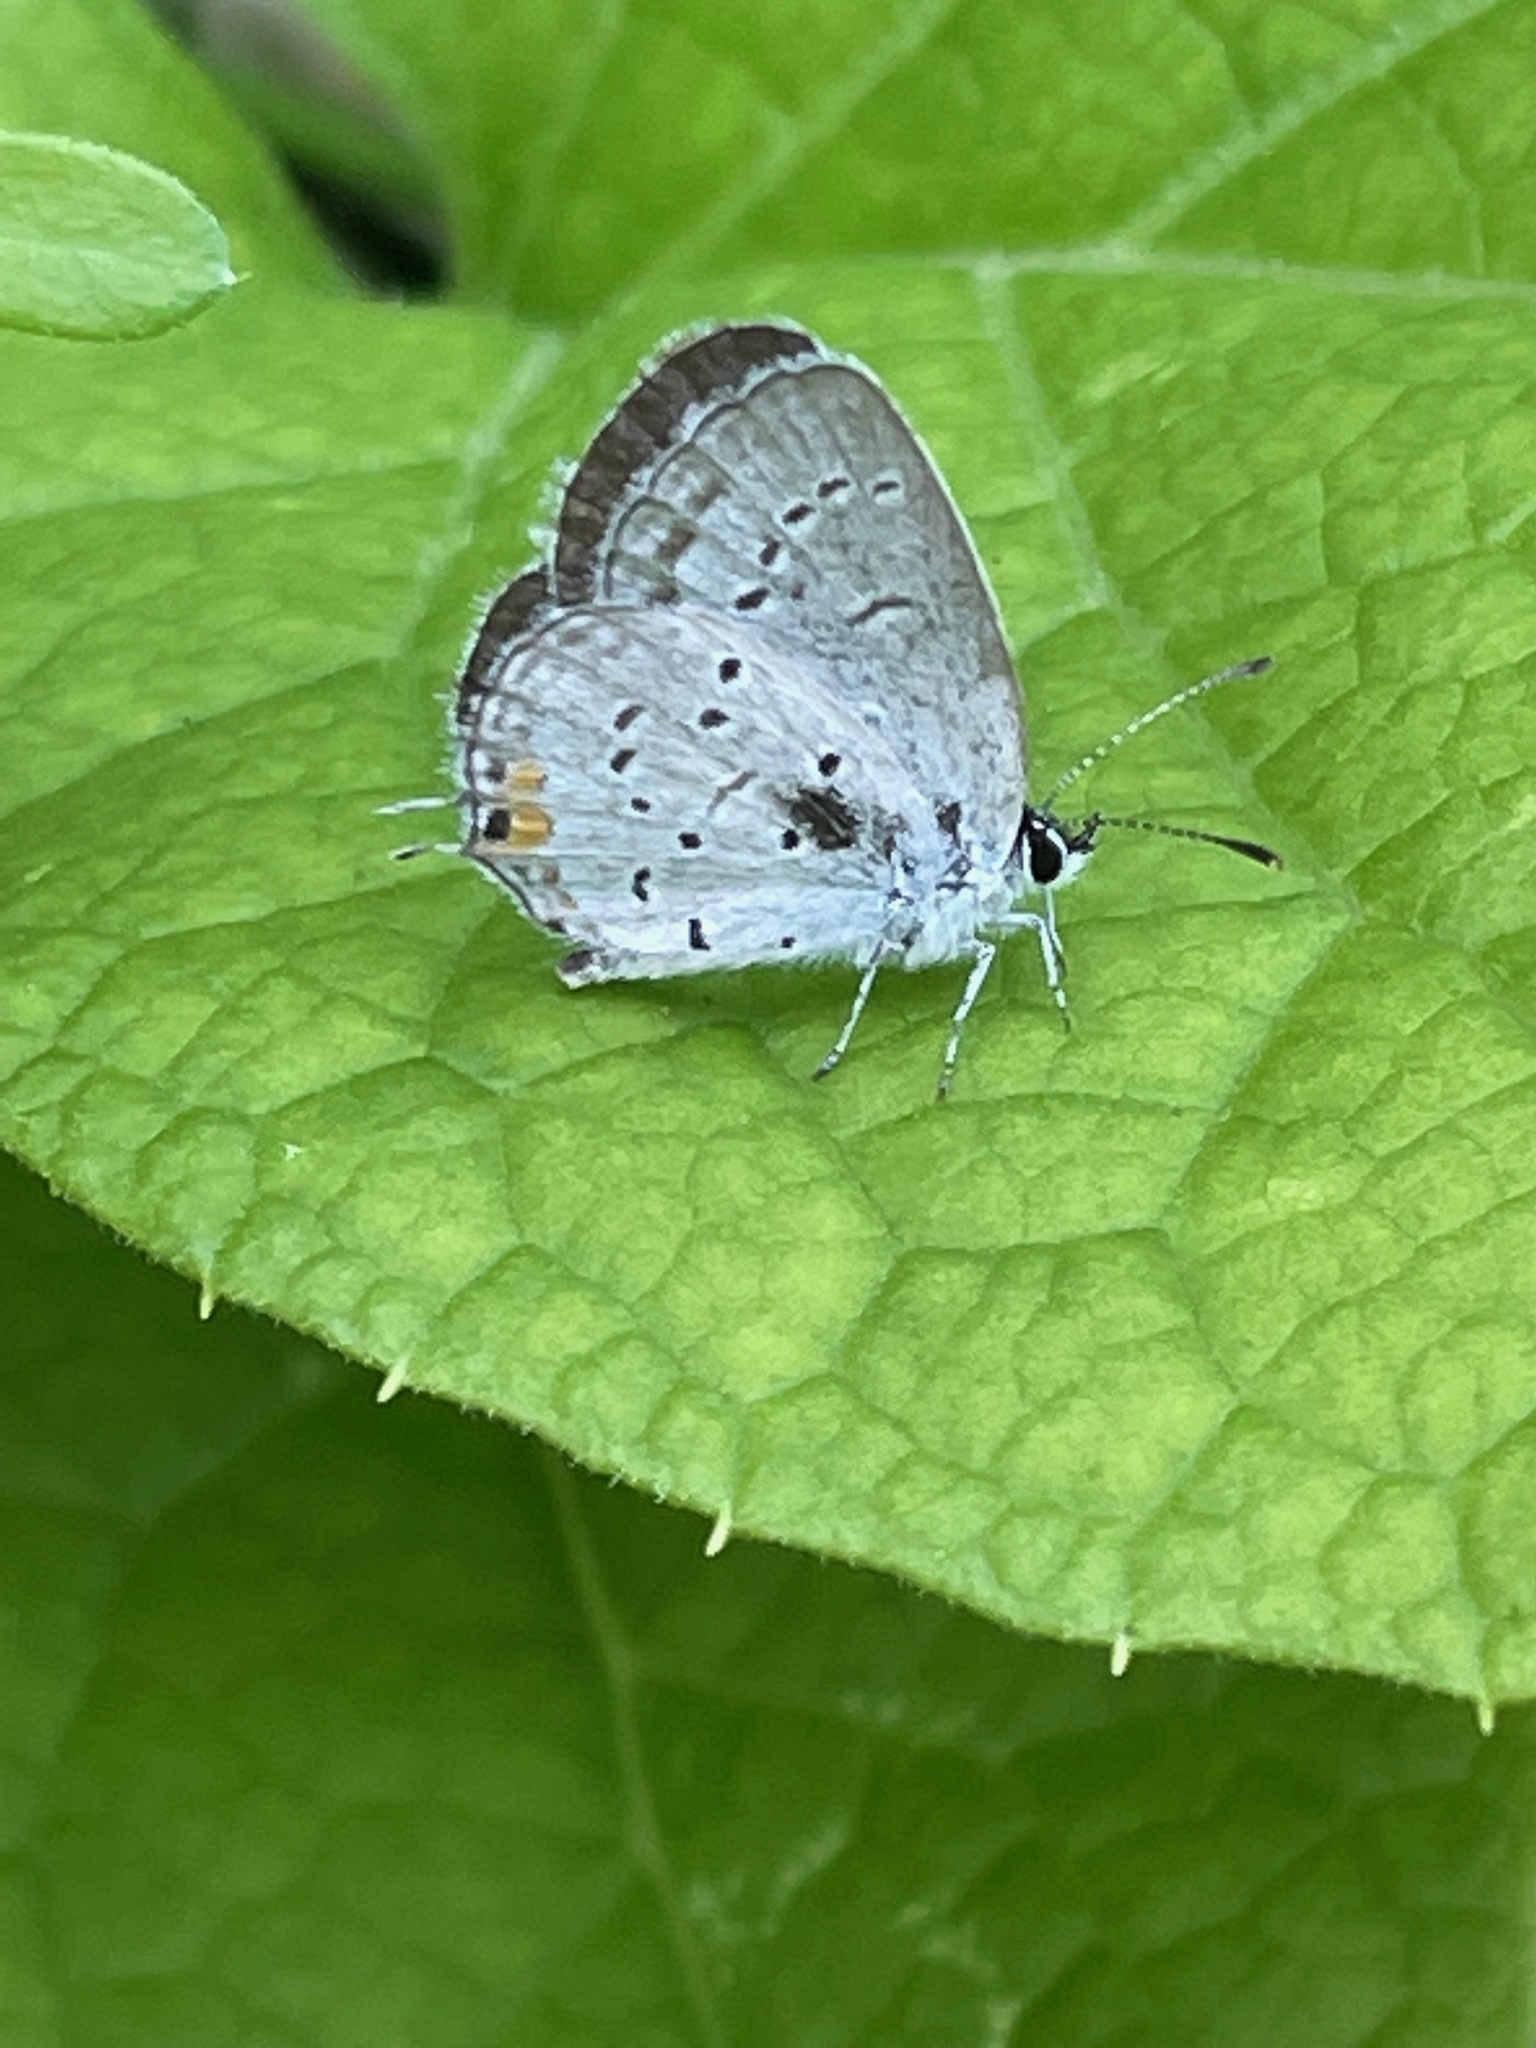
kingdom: Animalia
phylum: Arthropoda
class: Insecta
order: Lepidoptera
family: Lycaenidae
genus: Elkalyce
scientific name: Elkalyce comyntas
